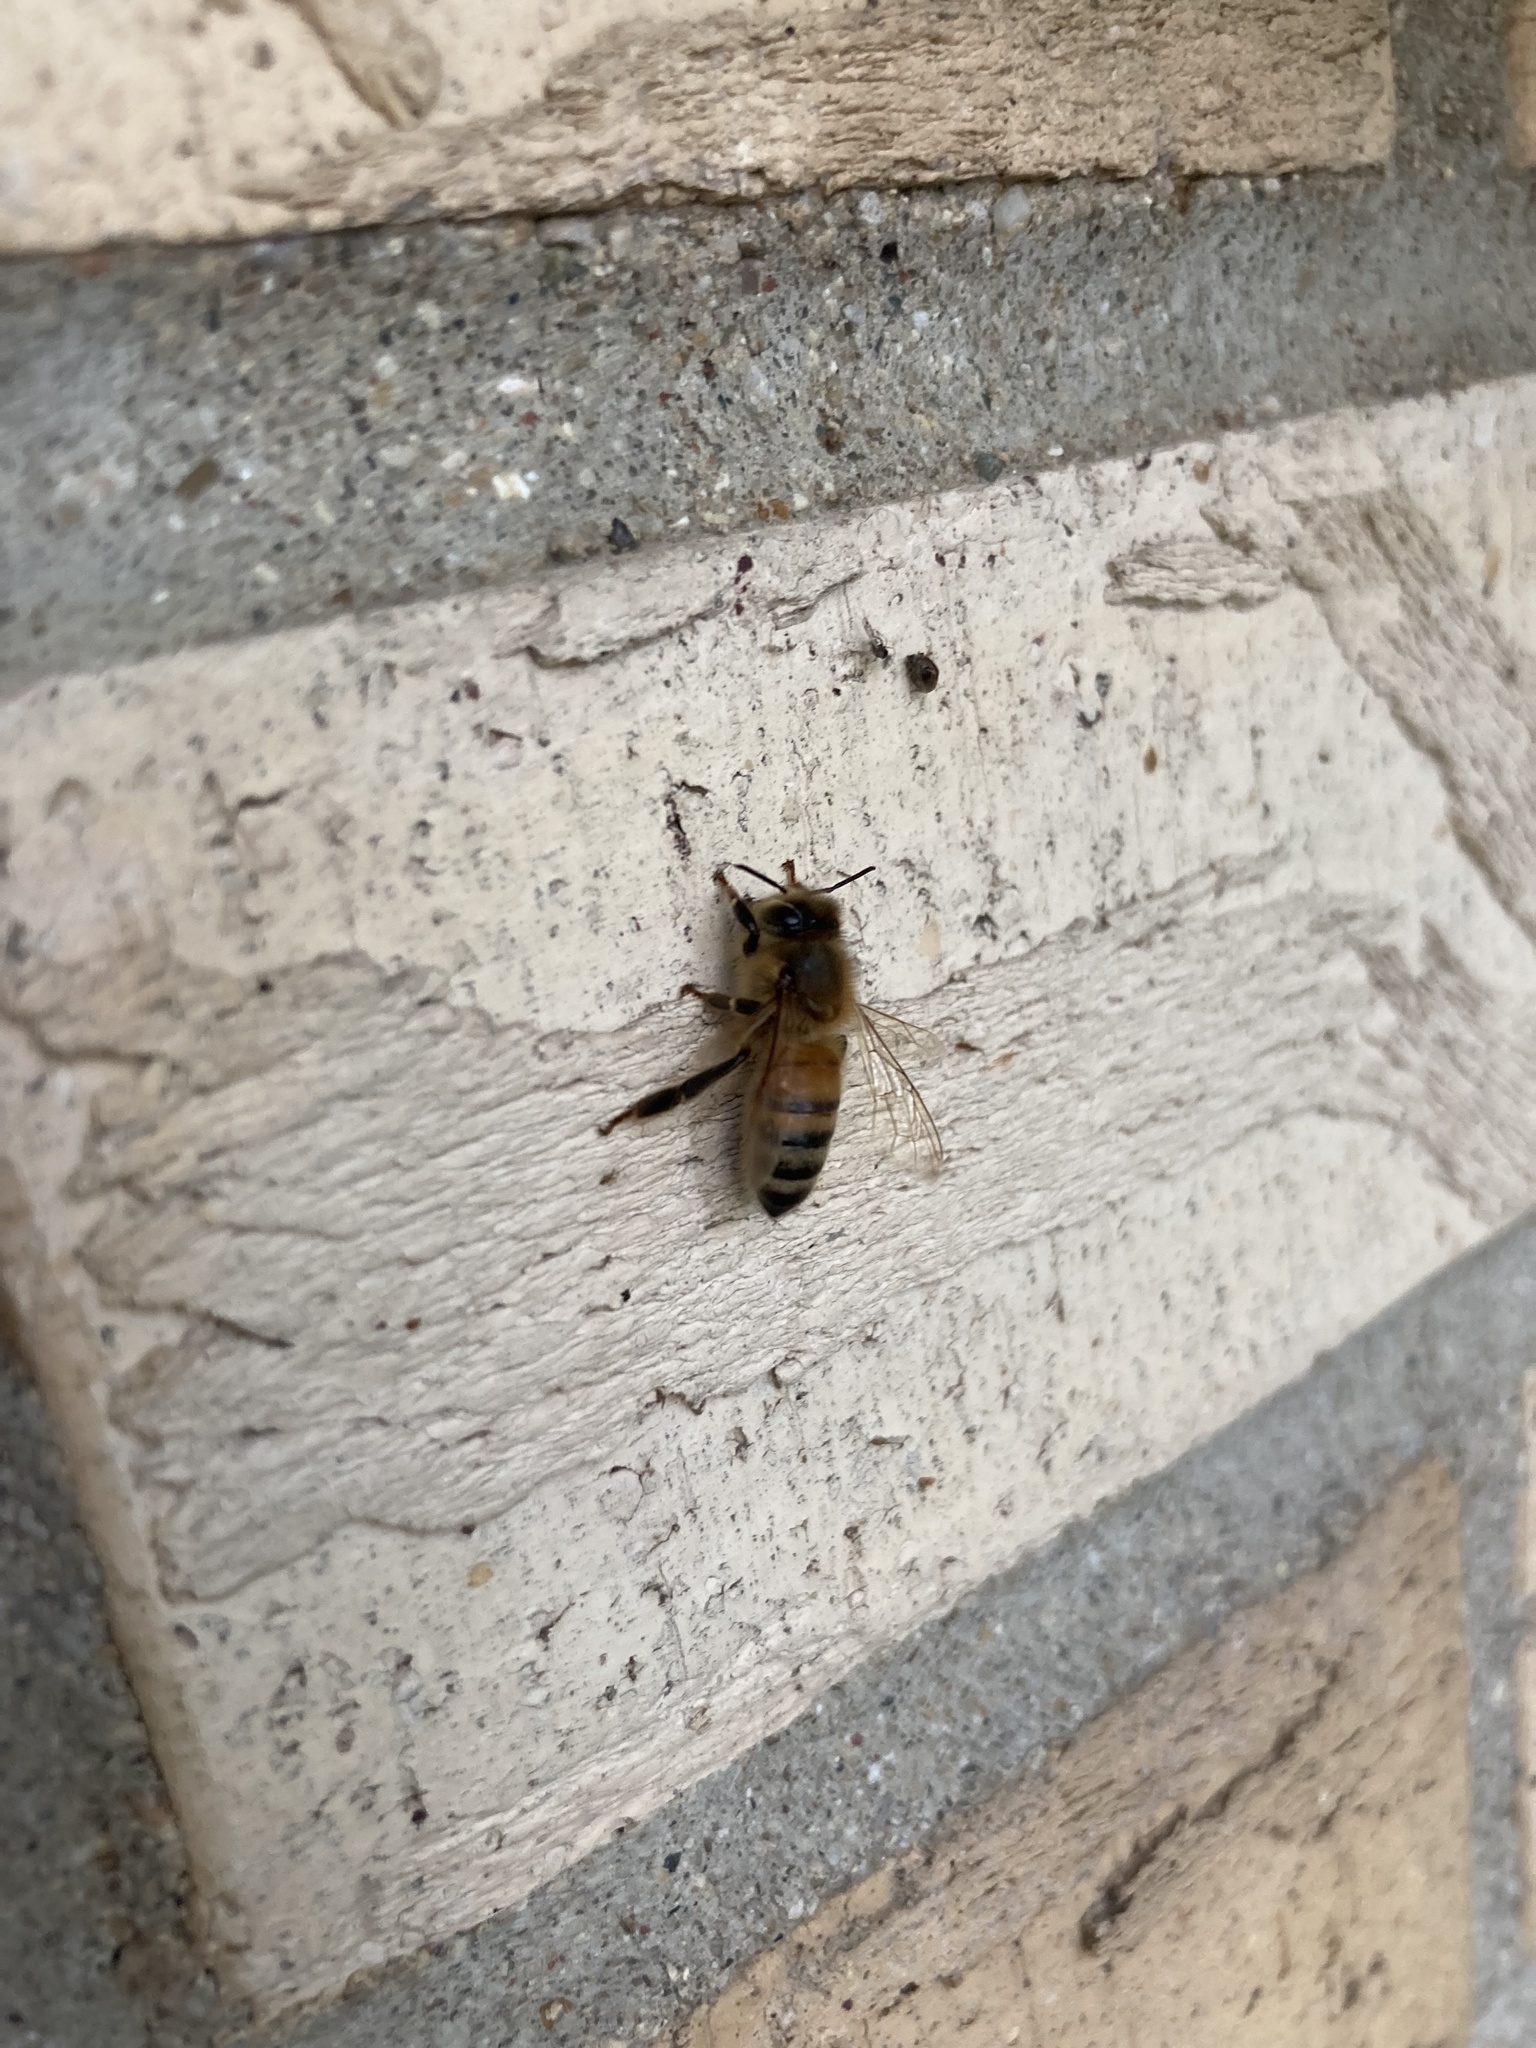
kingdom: Animalia
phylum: Arthropoda
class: Insecta
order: Hymenoptera
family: Apidae
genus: Apis
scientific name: Apis mellifera
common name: Honey bee
